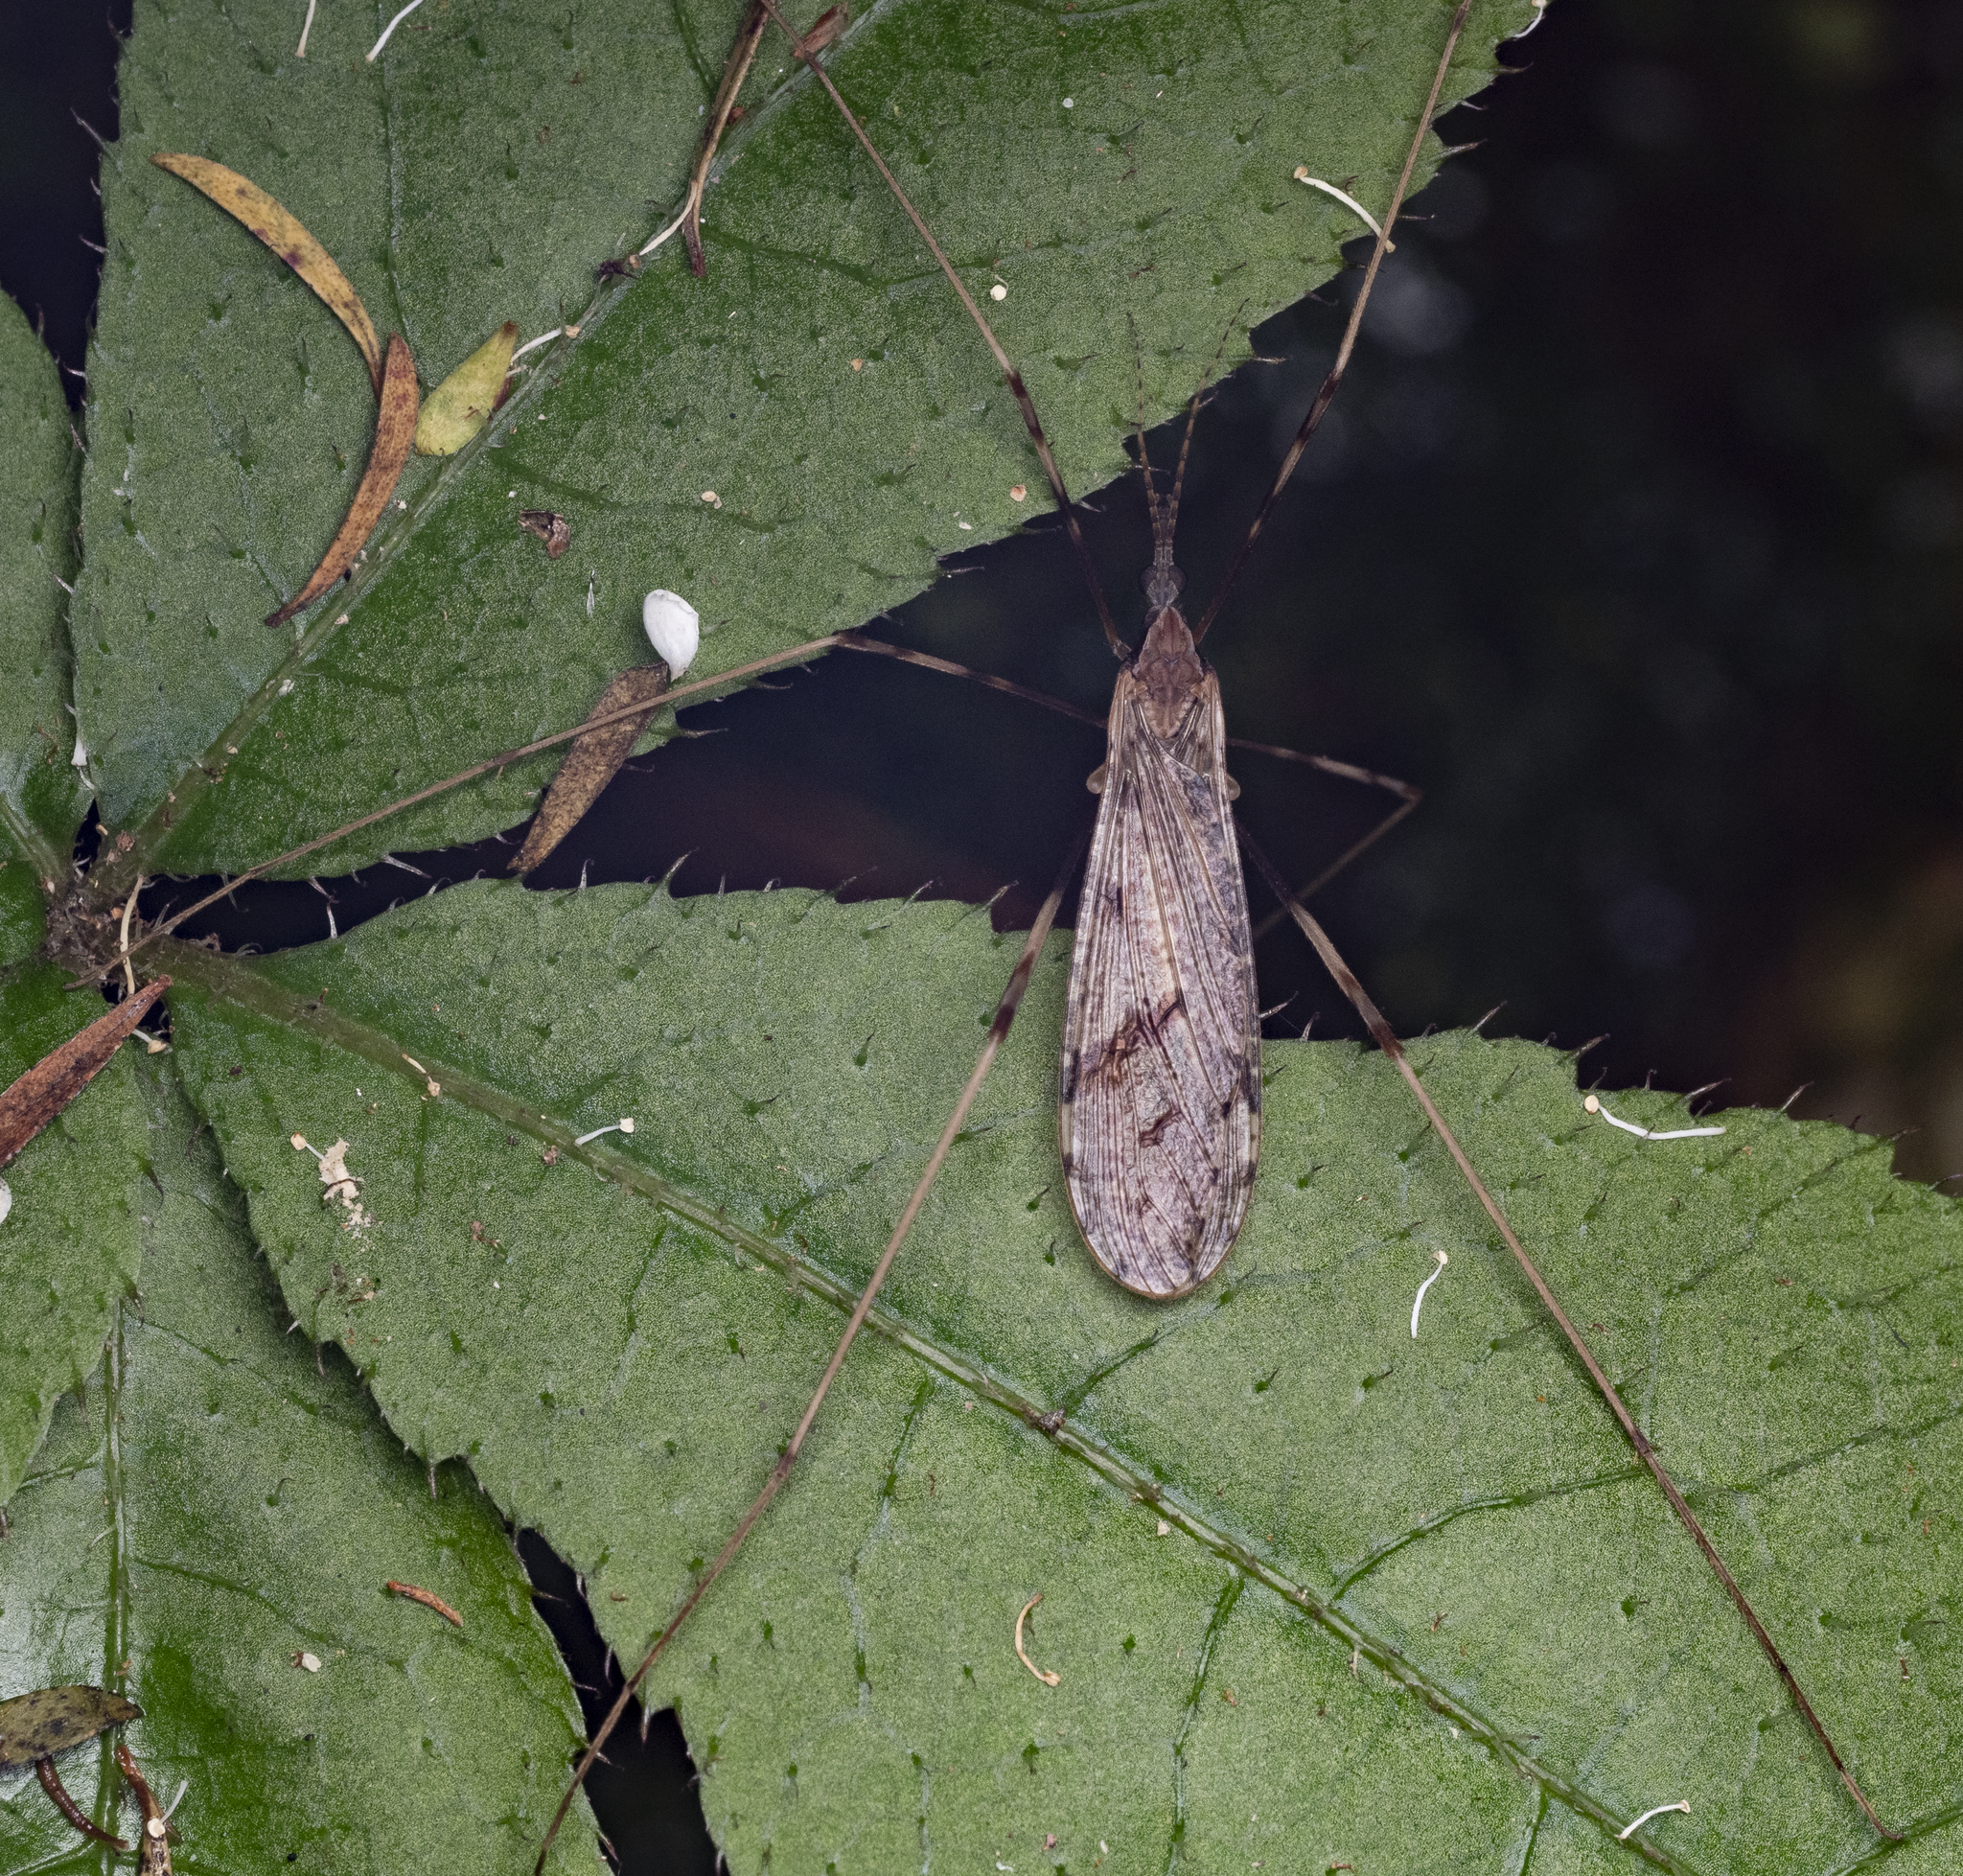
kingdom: Animalia
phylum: Arthropoda
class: Insecta
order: Diptera
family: Limoniidae
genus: Rhamphophila
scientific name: Rhamphophila sinistra
